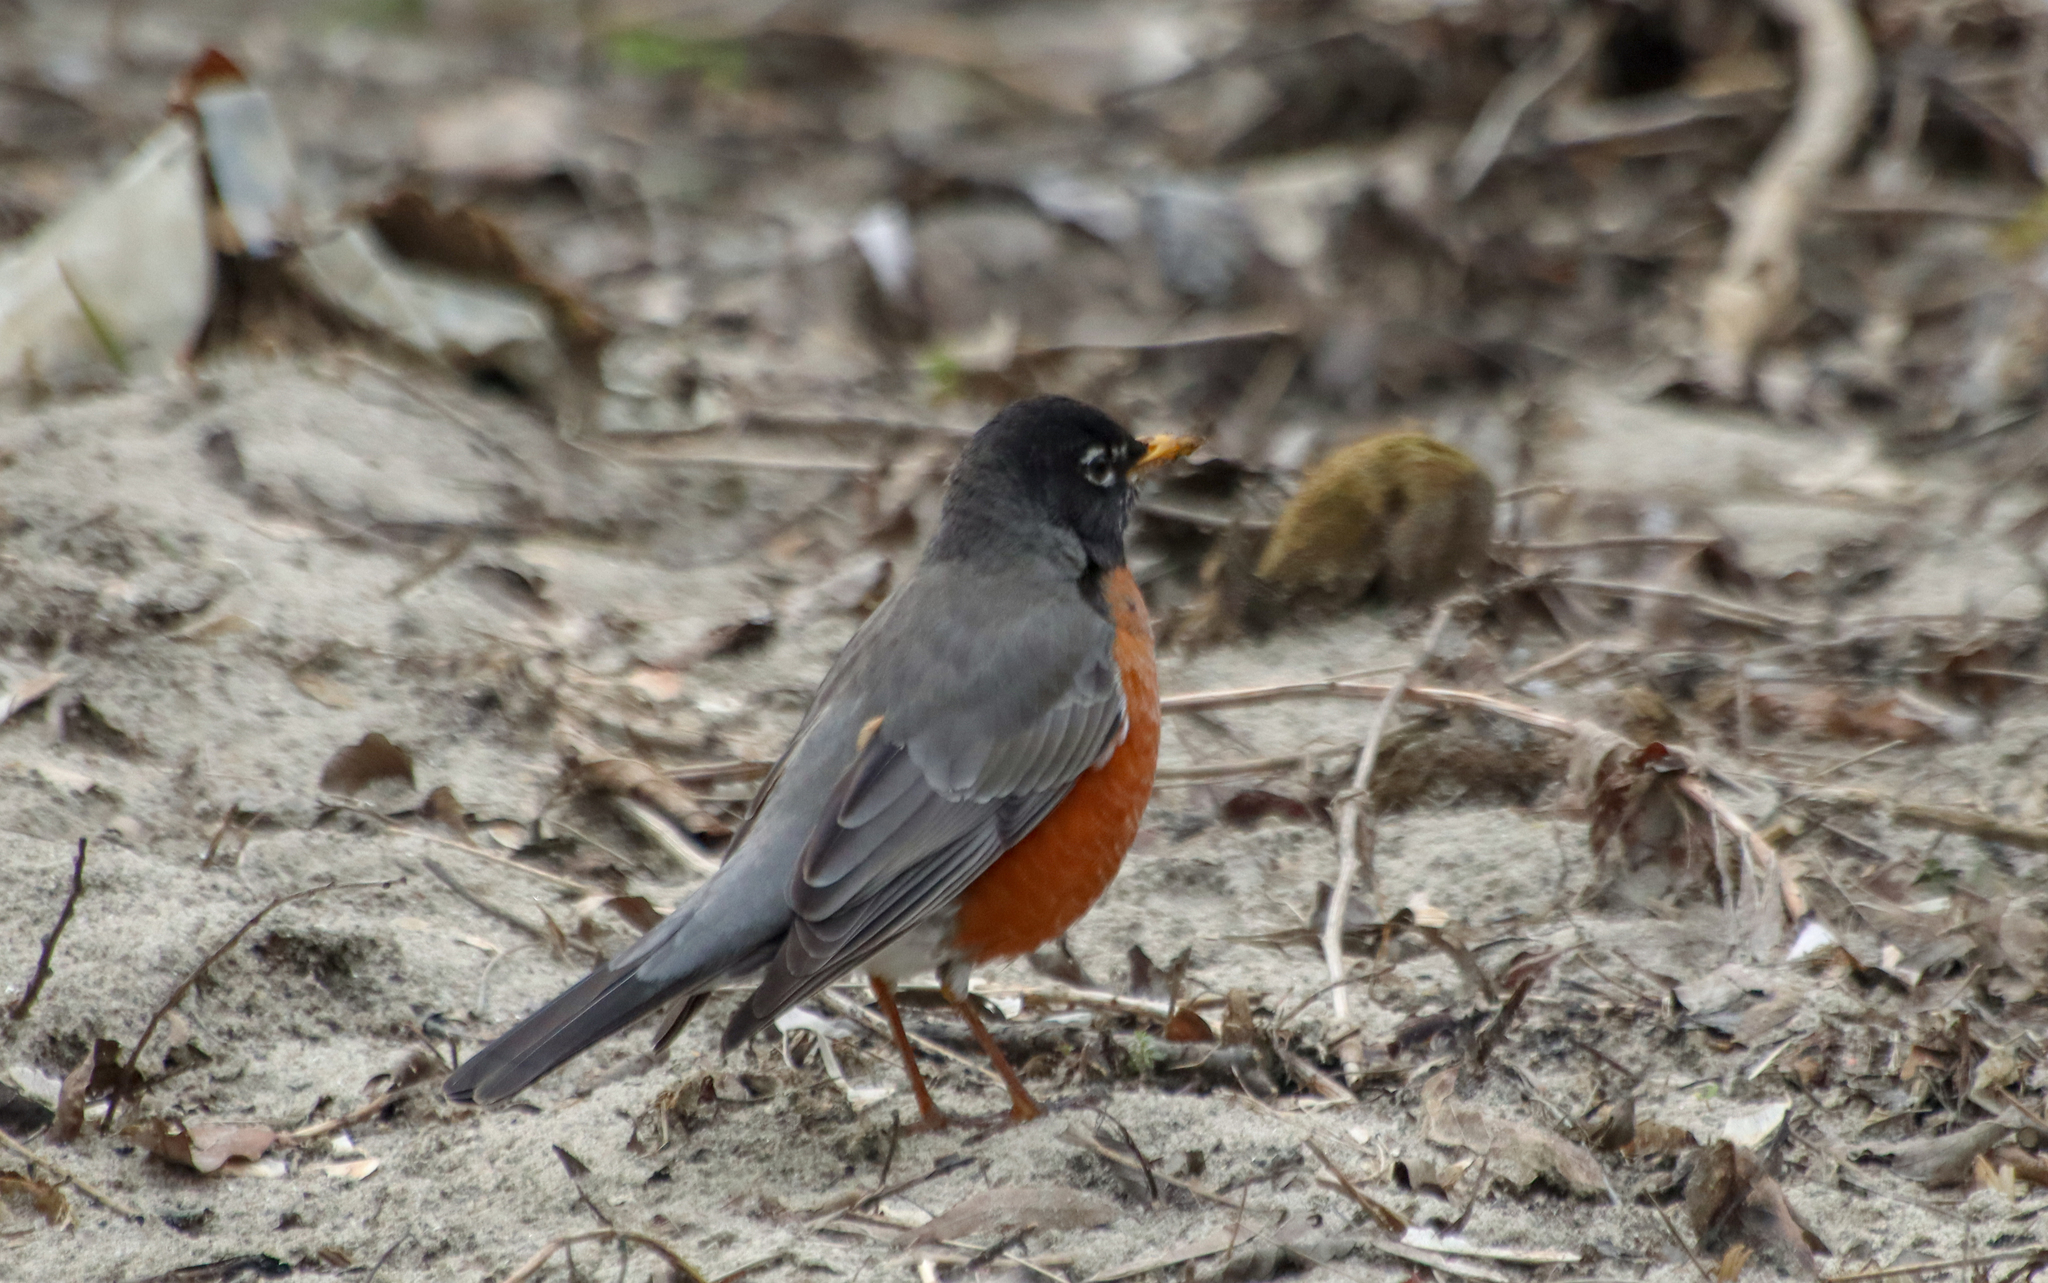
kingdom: Animalia
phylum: Chordata
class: Aves
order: Passeriformes
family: Turdidae
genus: Turdus
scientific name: Turdus migratorius
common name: American robin
